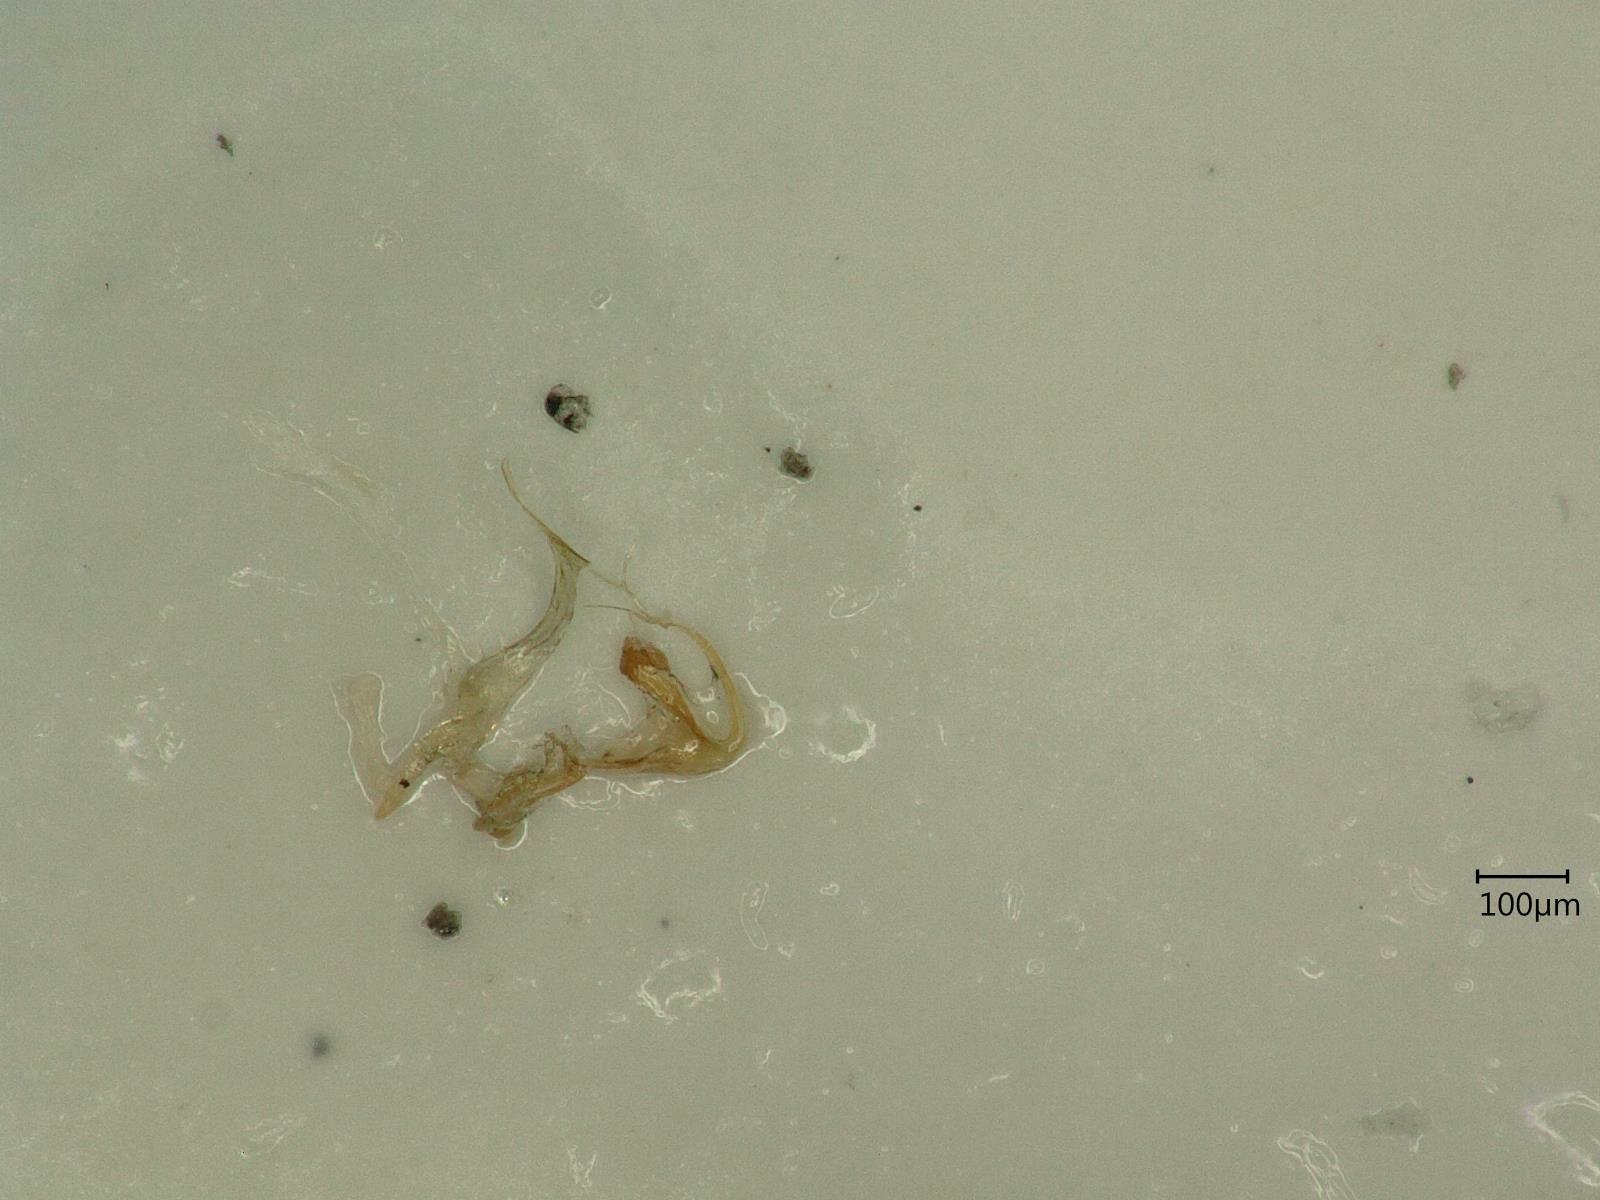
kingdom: Animalia
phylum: Arthropoda
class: Insecta
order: Hemiptera
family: Cicadellidae
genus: Eupteryx
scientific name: Eupteryx calcarata
